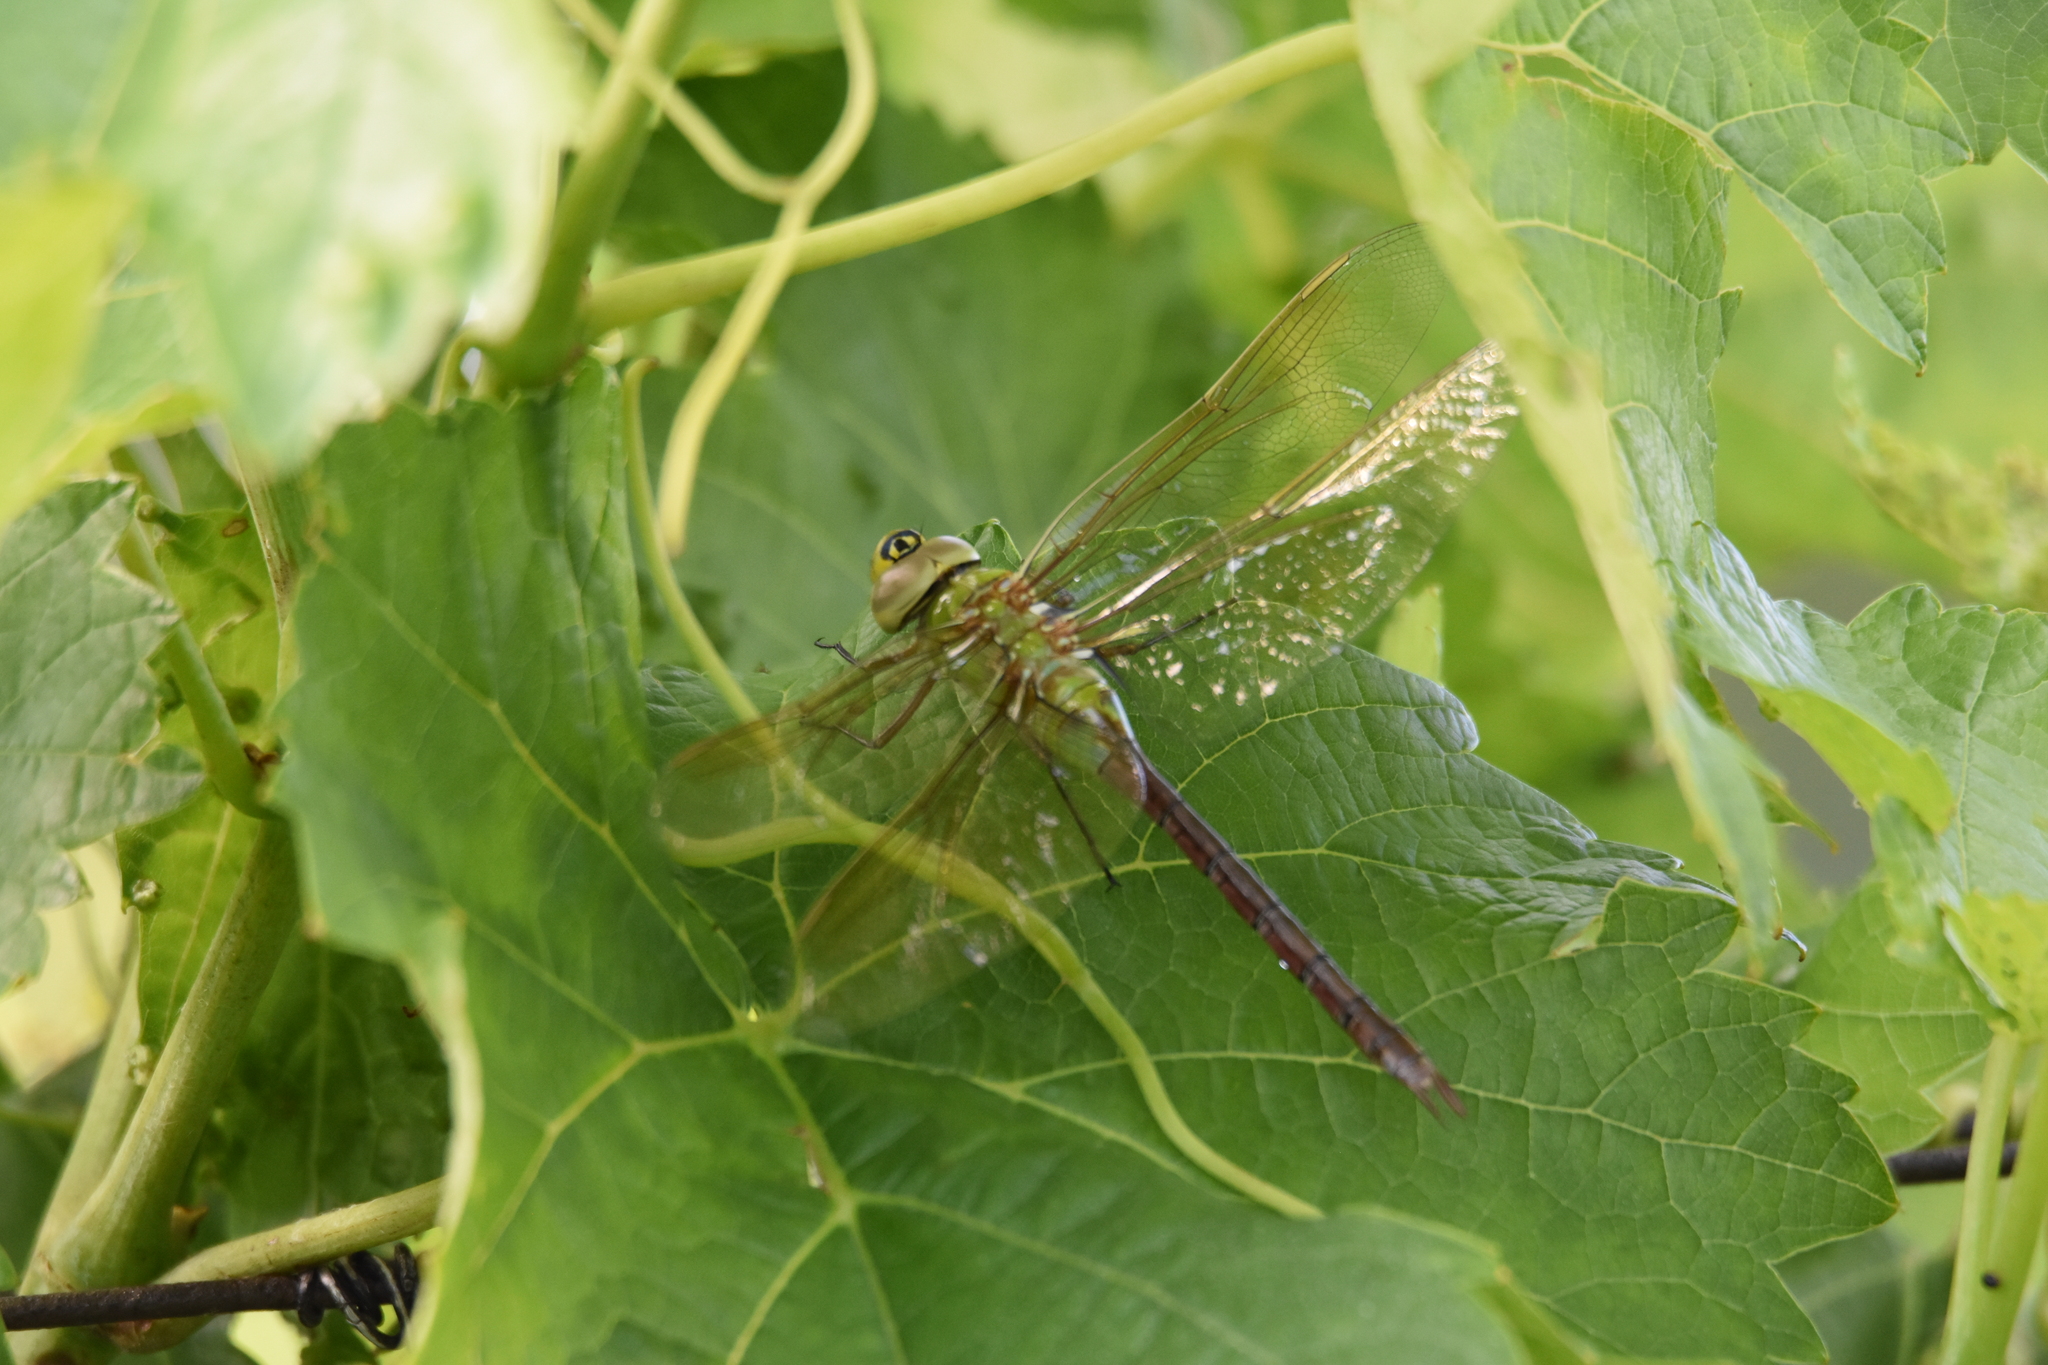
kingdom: Animalia
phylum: Arthropoda
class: Insecta
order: Odonata
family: Aeshnidae
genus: Anax
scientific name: Anax junius
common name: Common green darner
